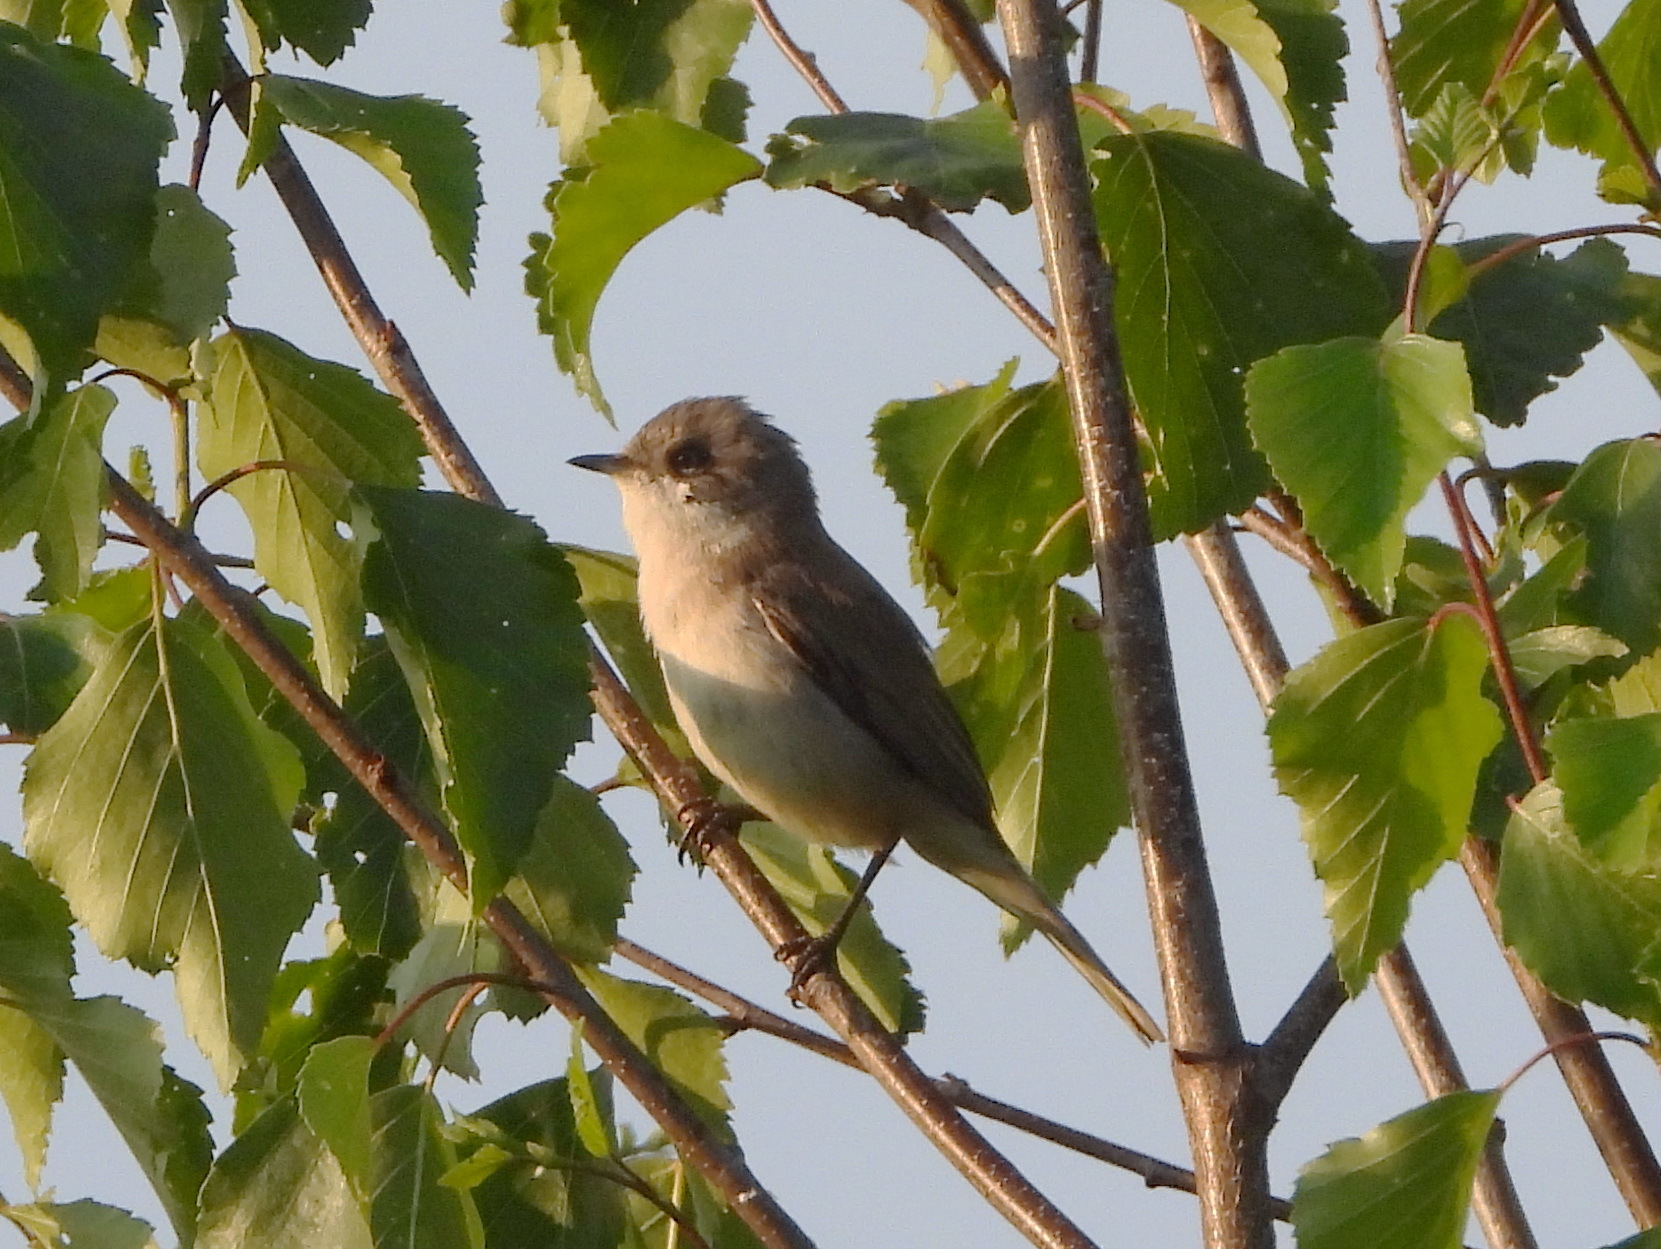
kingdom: Animalia
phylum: Chordata
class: Aves
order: Passeriformes
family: Sylviidae
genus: Sylvia
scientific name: Sylvia curruca
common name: Lesser whitethroat
